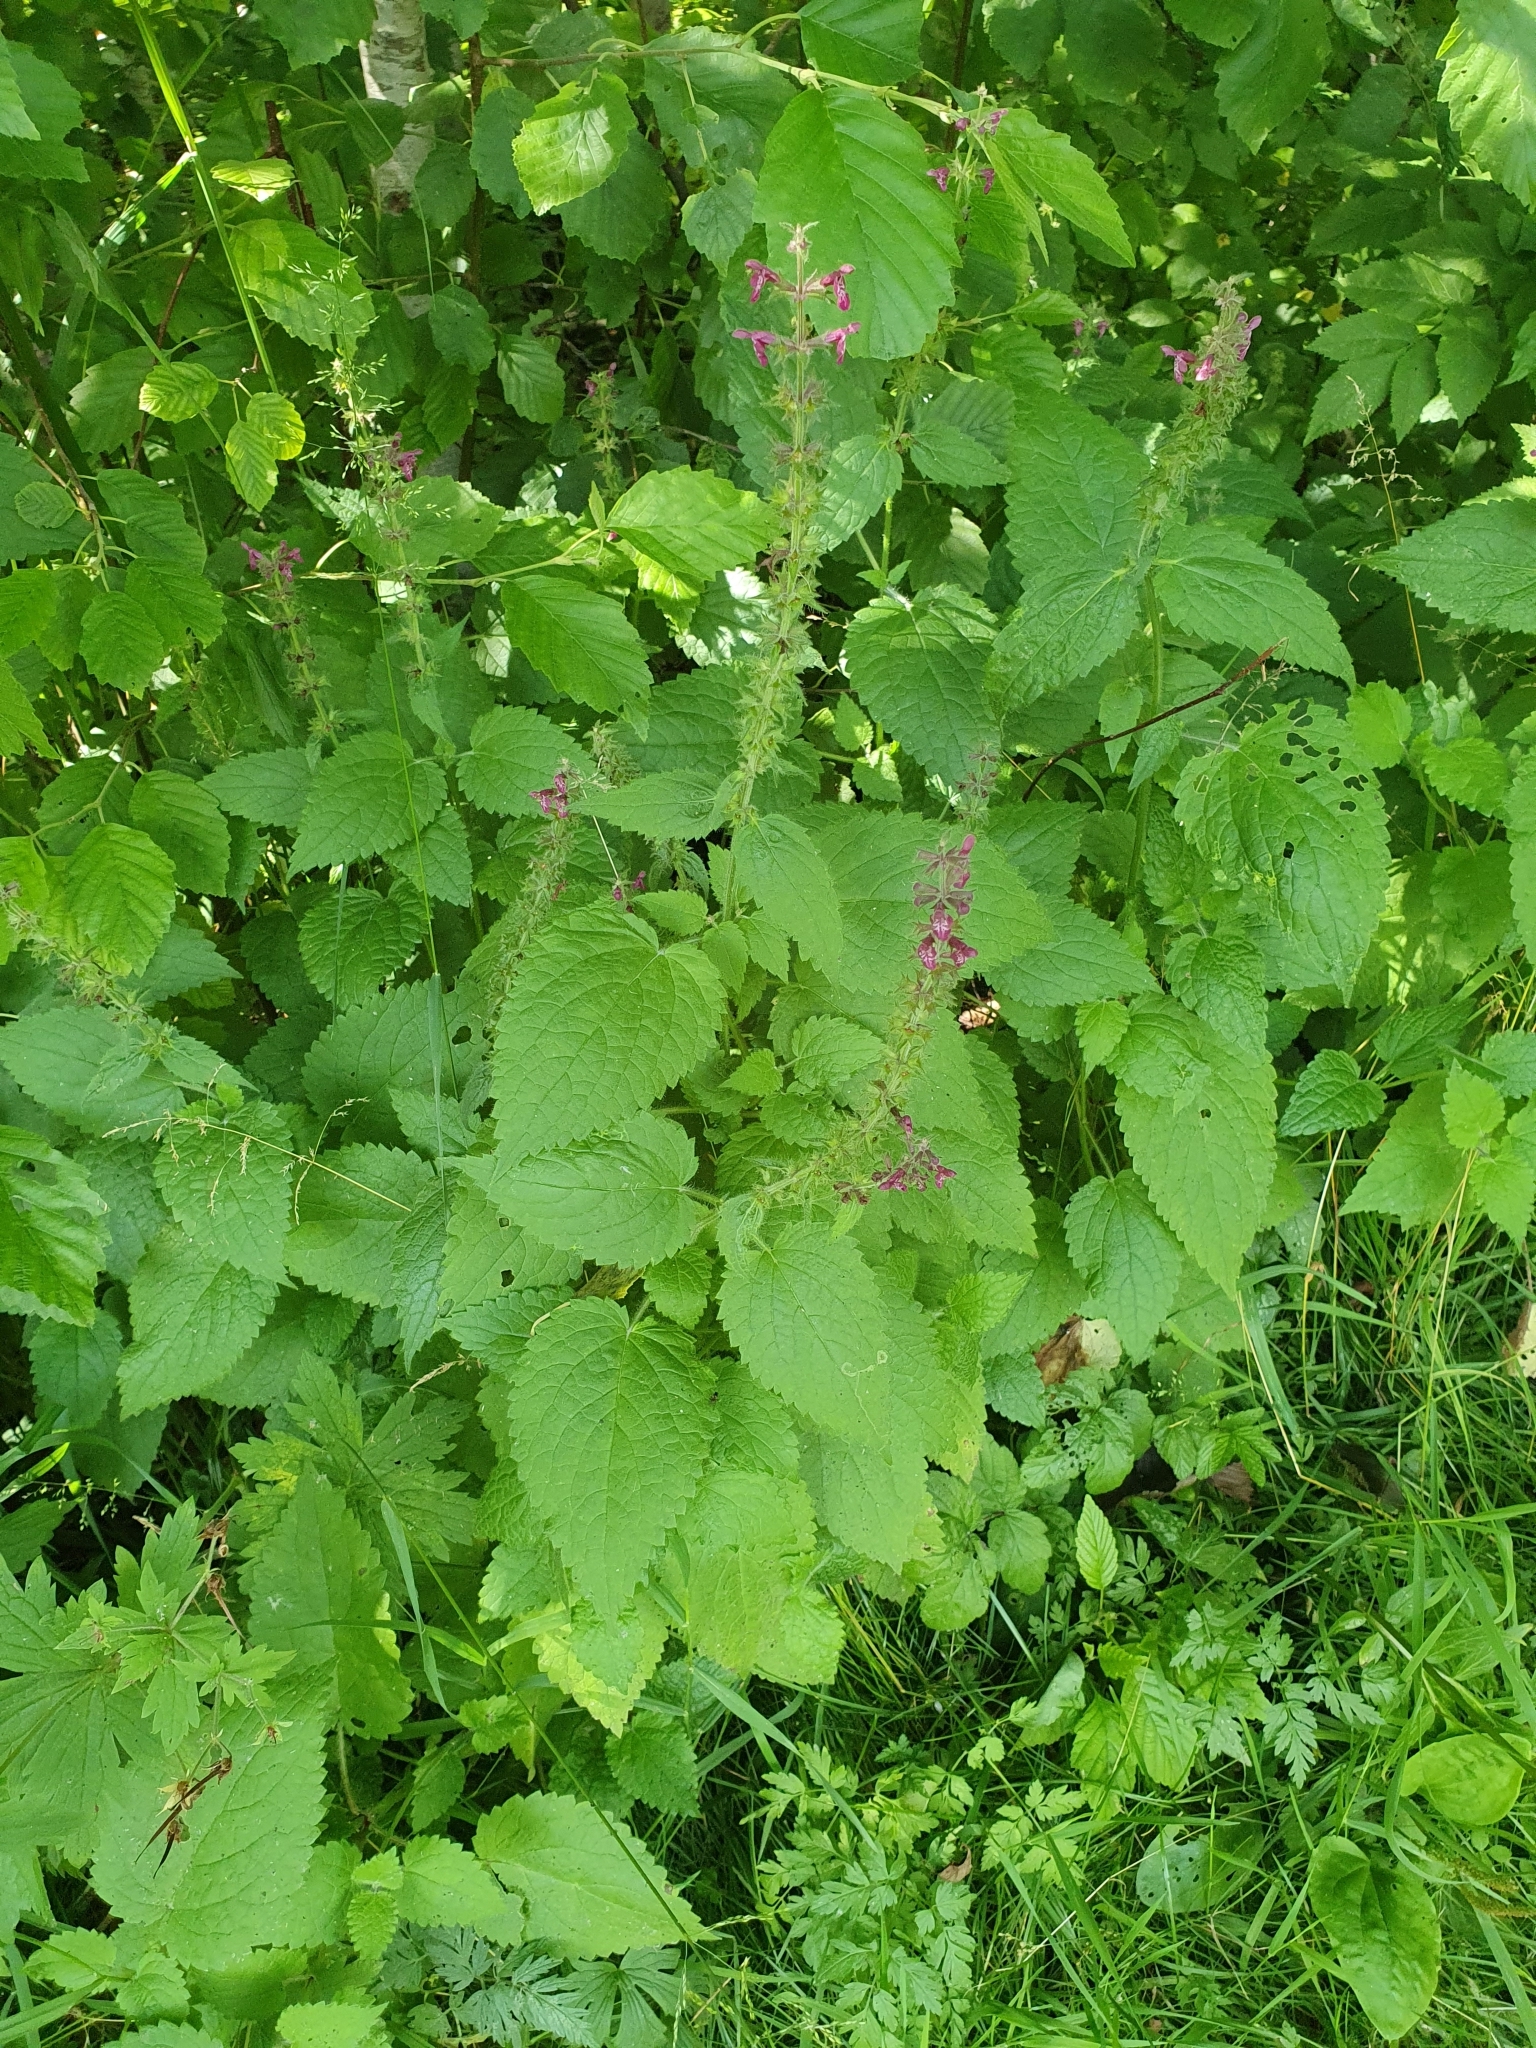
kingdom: Plantae
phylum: Tracheophyta
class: Magnoliopsida
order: Lamiales
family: Lamiaceae
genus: Stachys
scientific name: Stachys sylvatica
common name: Hedge woundwort
